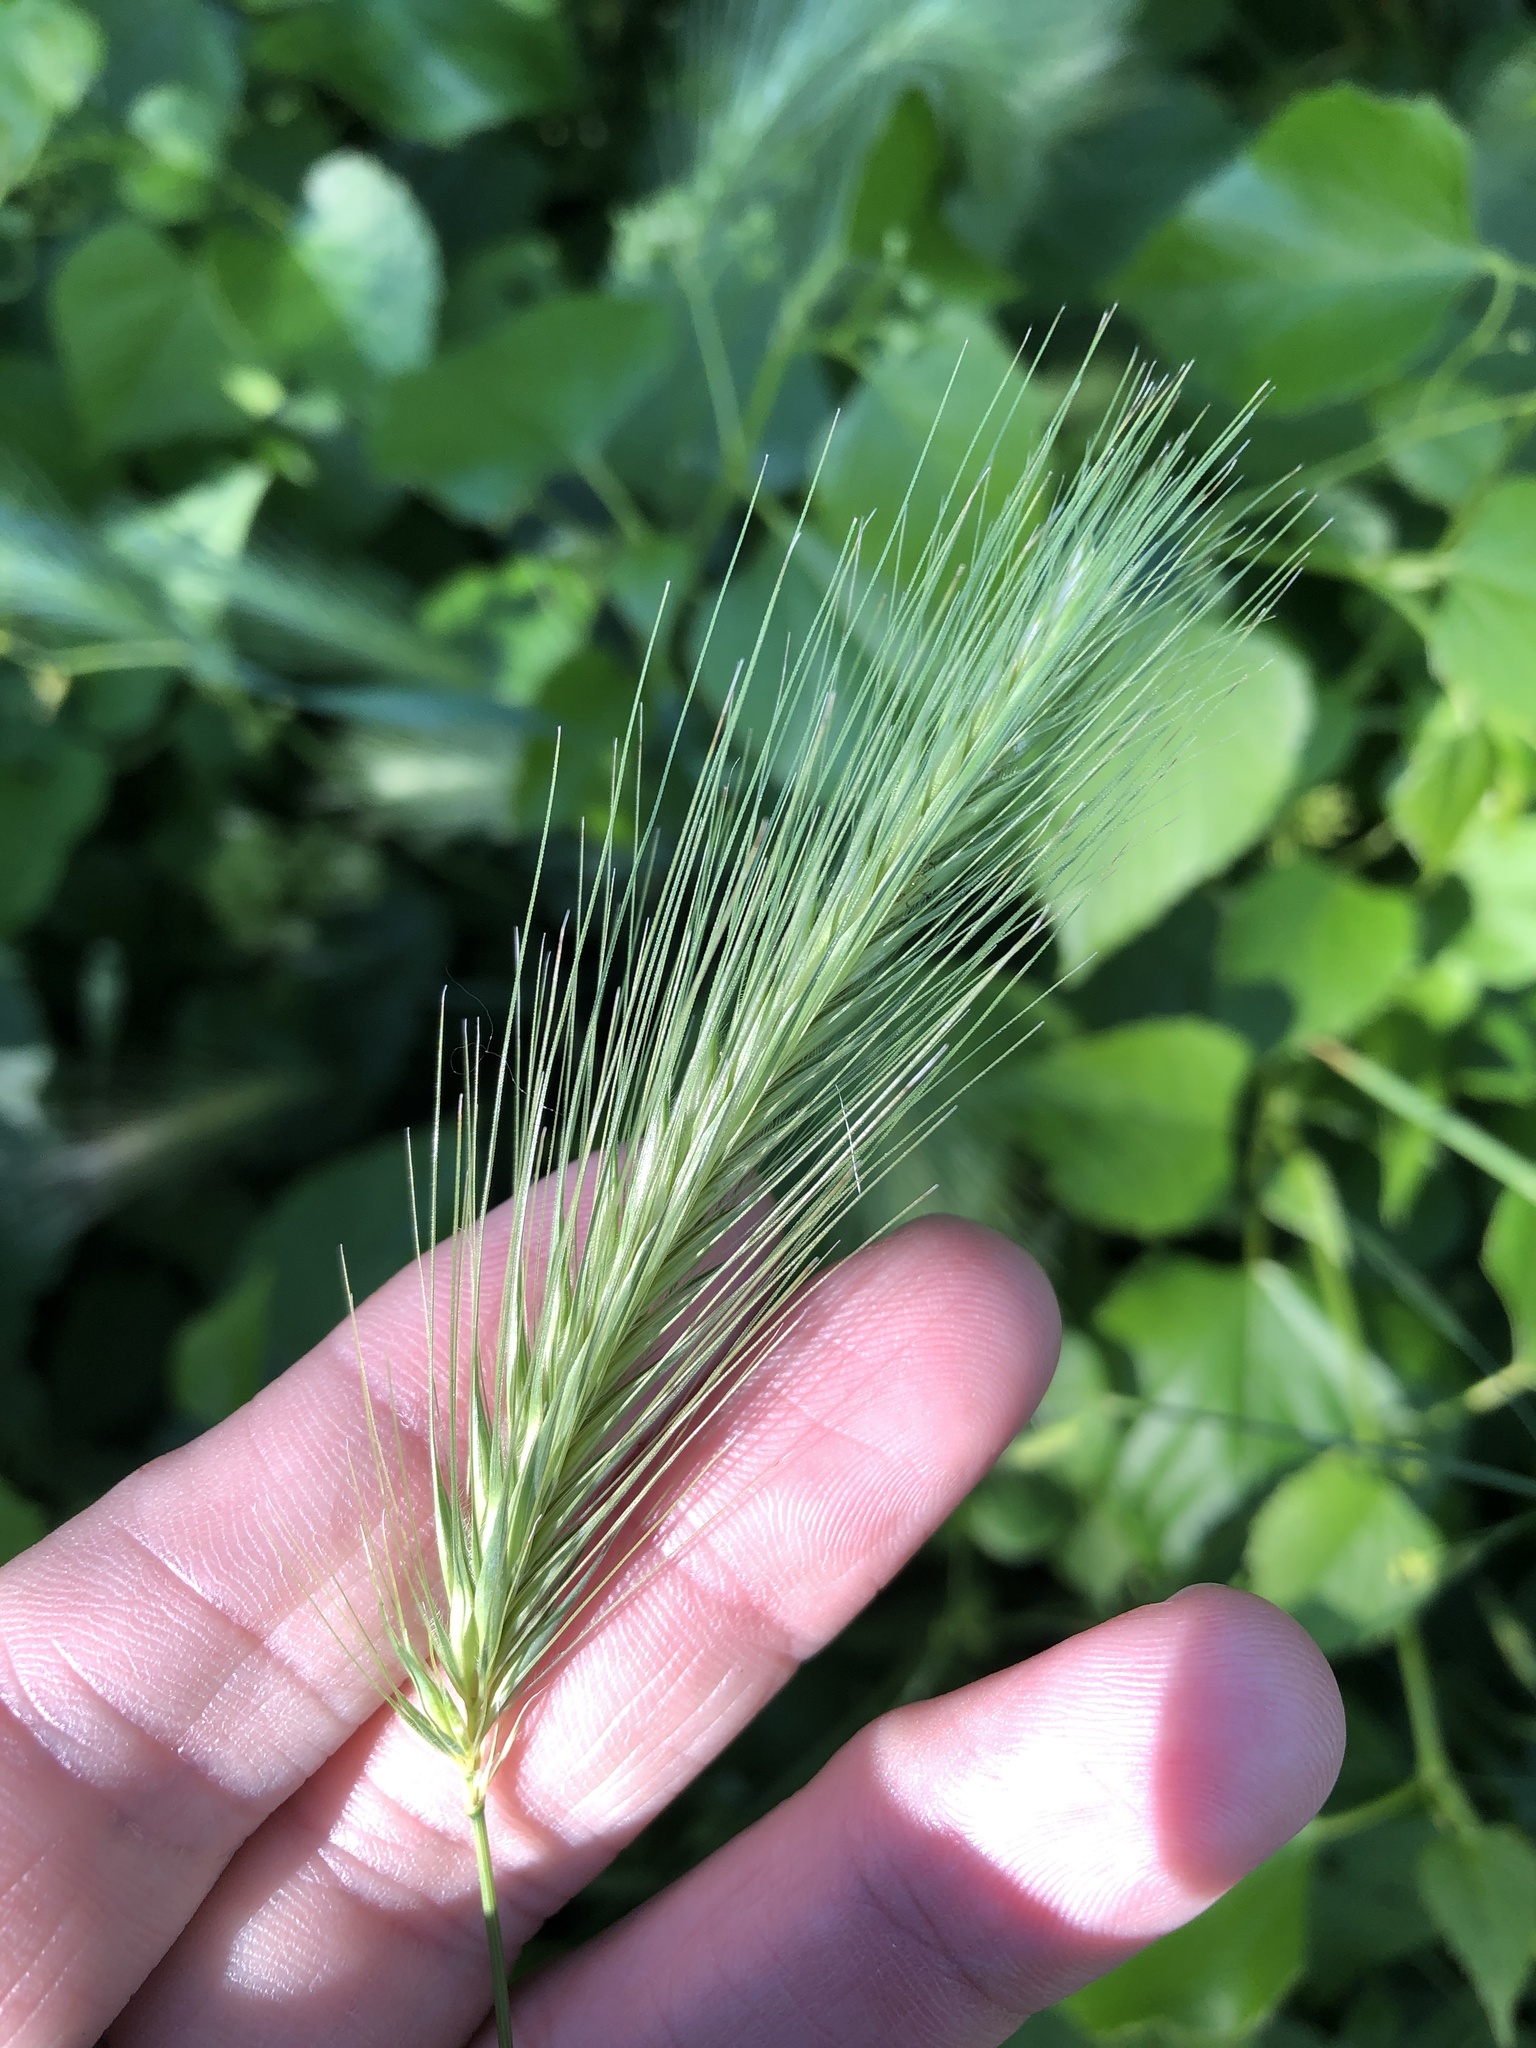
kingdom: Plantae
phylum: Tracheophyta
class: Liliopsida
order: Poales
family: Poaceae
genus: Hordeum
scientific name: Hordeum murinum
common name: Wall barley
